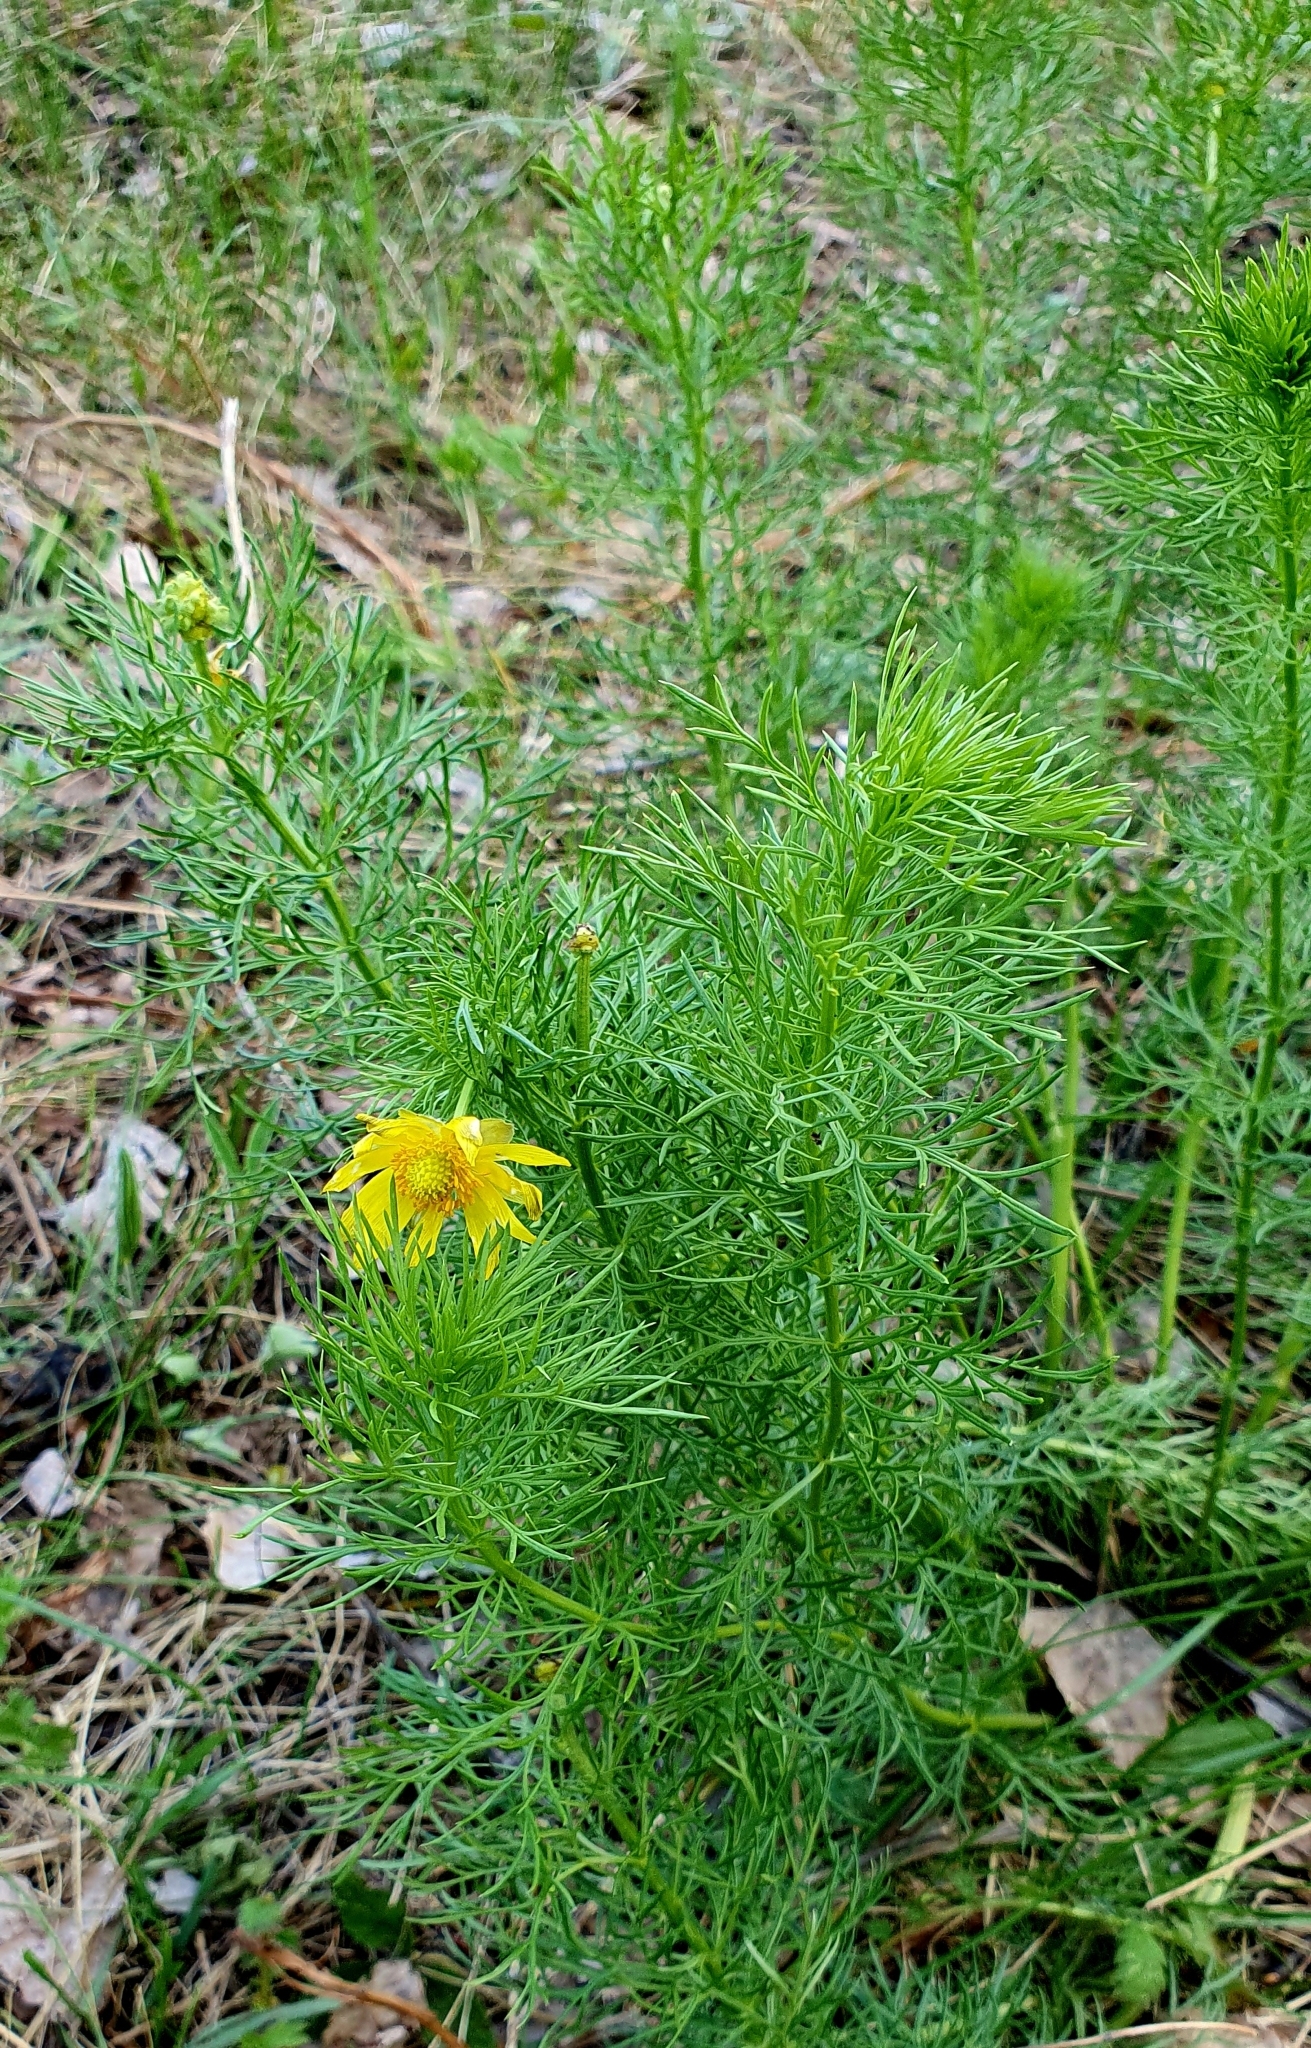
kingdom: Plantae
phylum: Tracheophyta
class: Magnoliopsida
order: Ranunculales
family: Ranunculaceae
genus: Adonis
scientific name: Adonis vernalis
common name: Yellow pheasants-eye
